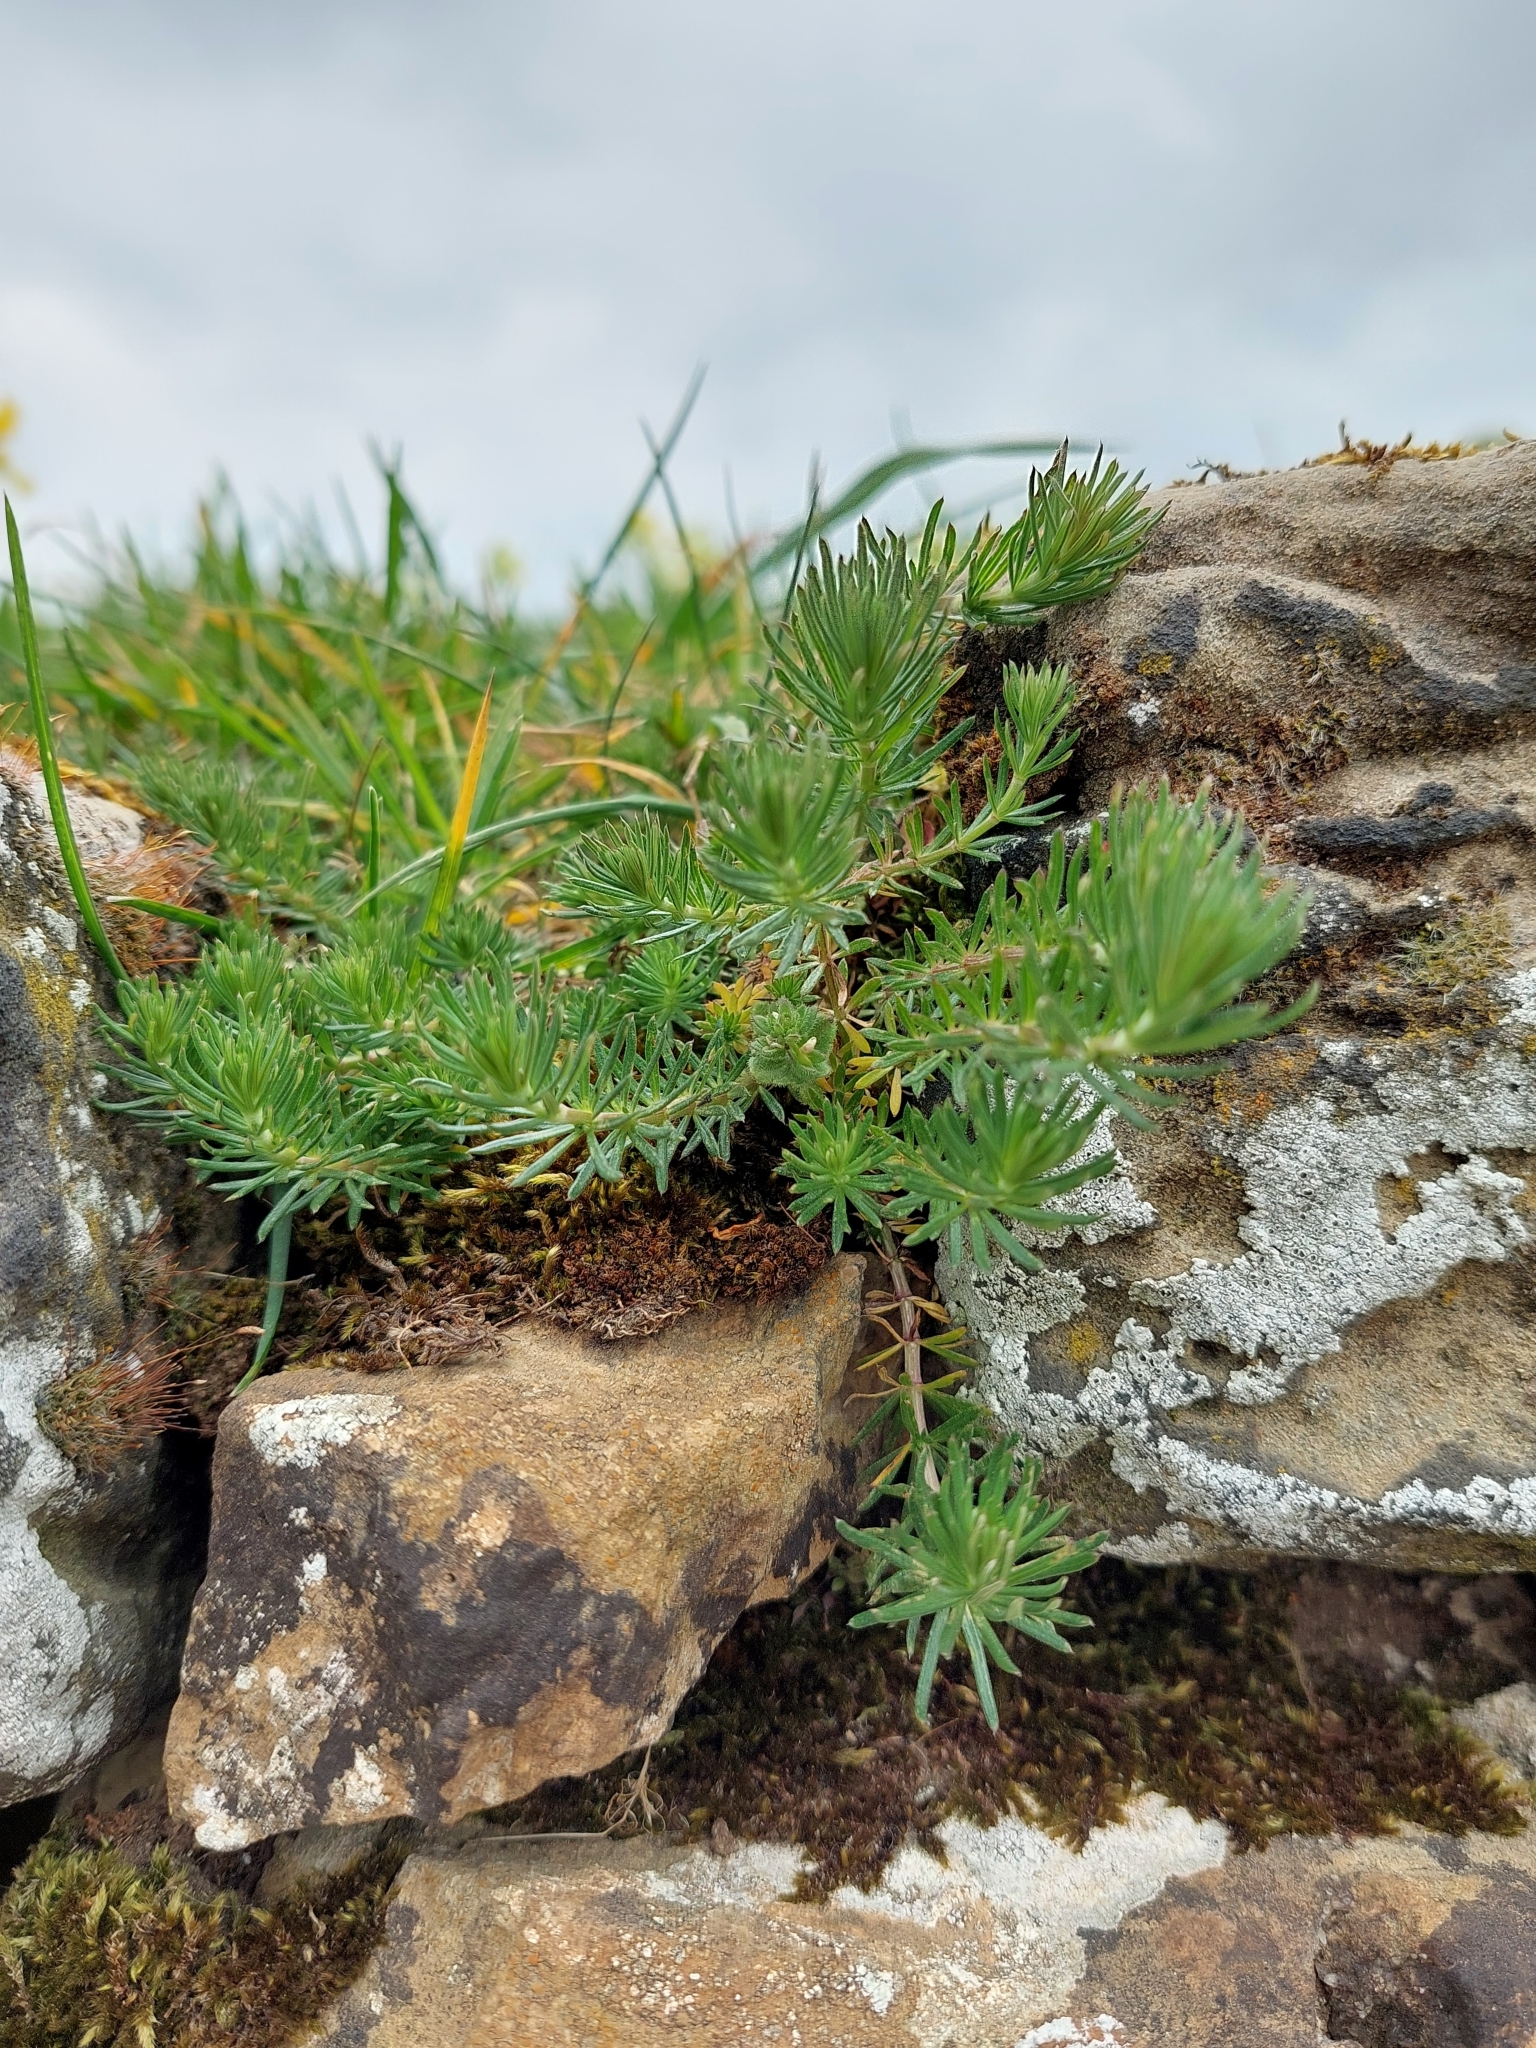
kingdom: Plantae
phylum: Tracheophyta
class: Magnoliopsida
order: Malpighiales
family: Euphorbiaceae
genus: Euphorbia
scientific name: Euphorbia cyparissias
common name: Cypress spurge
